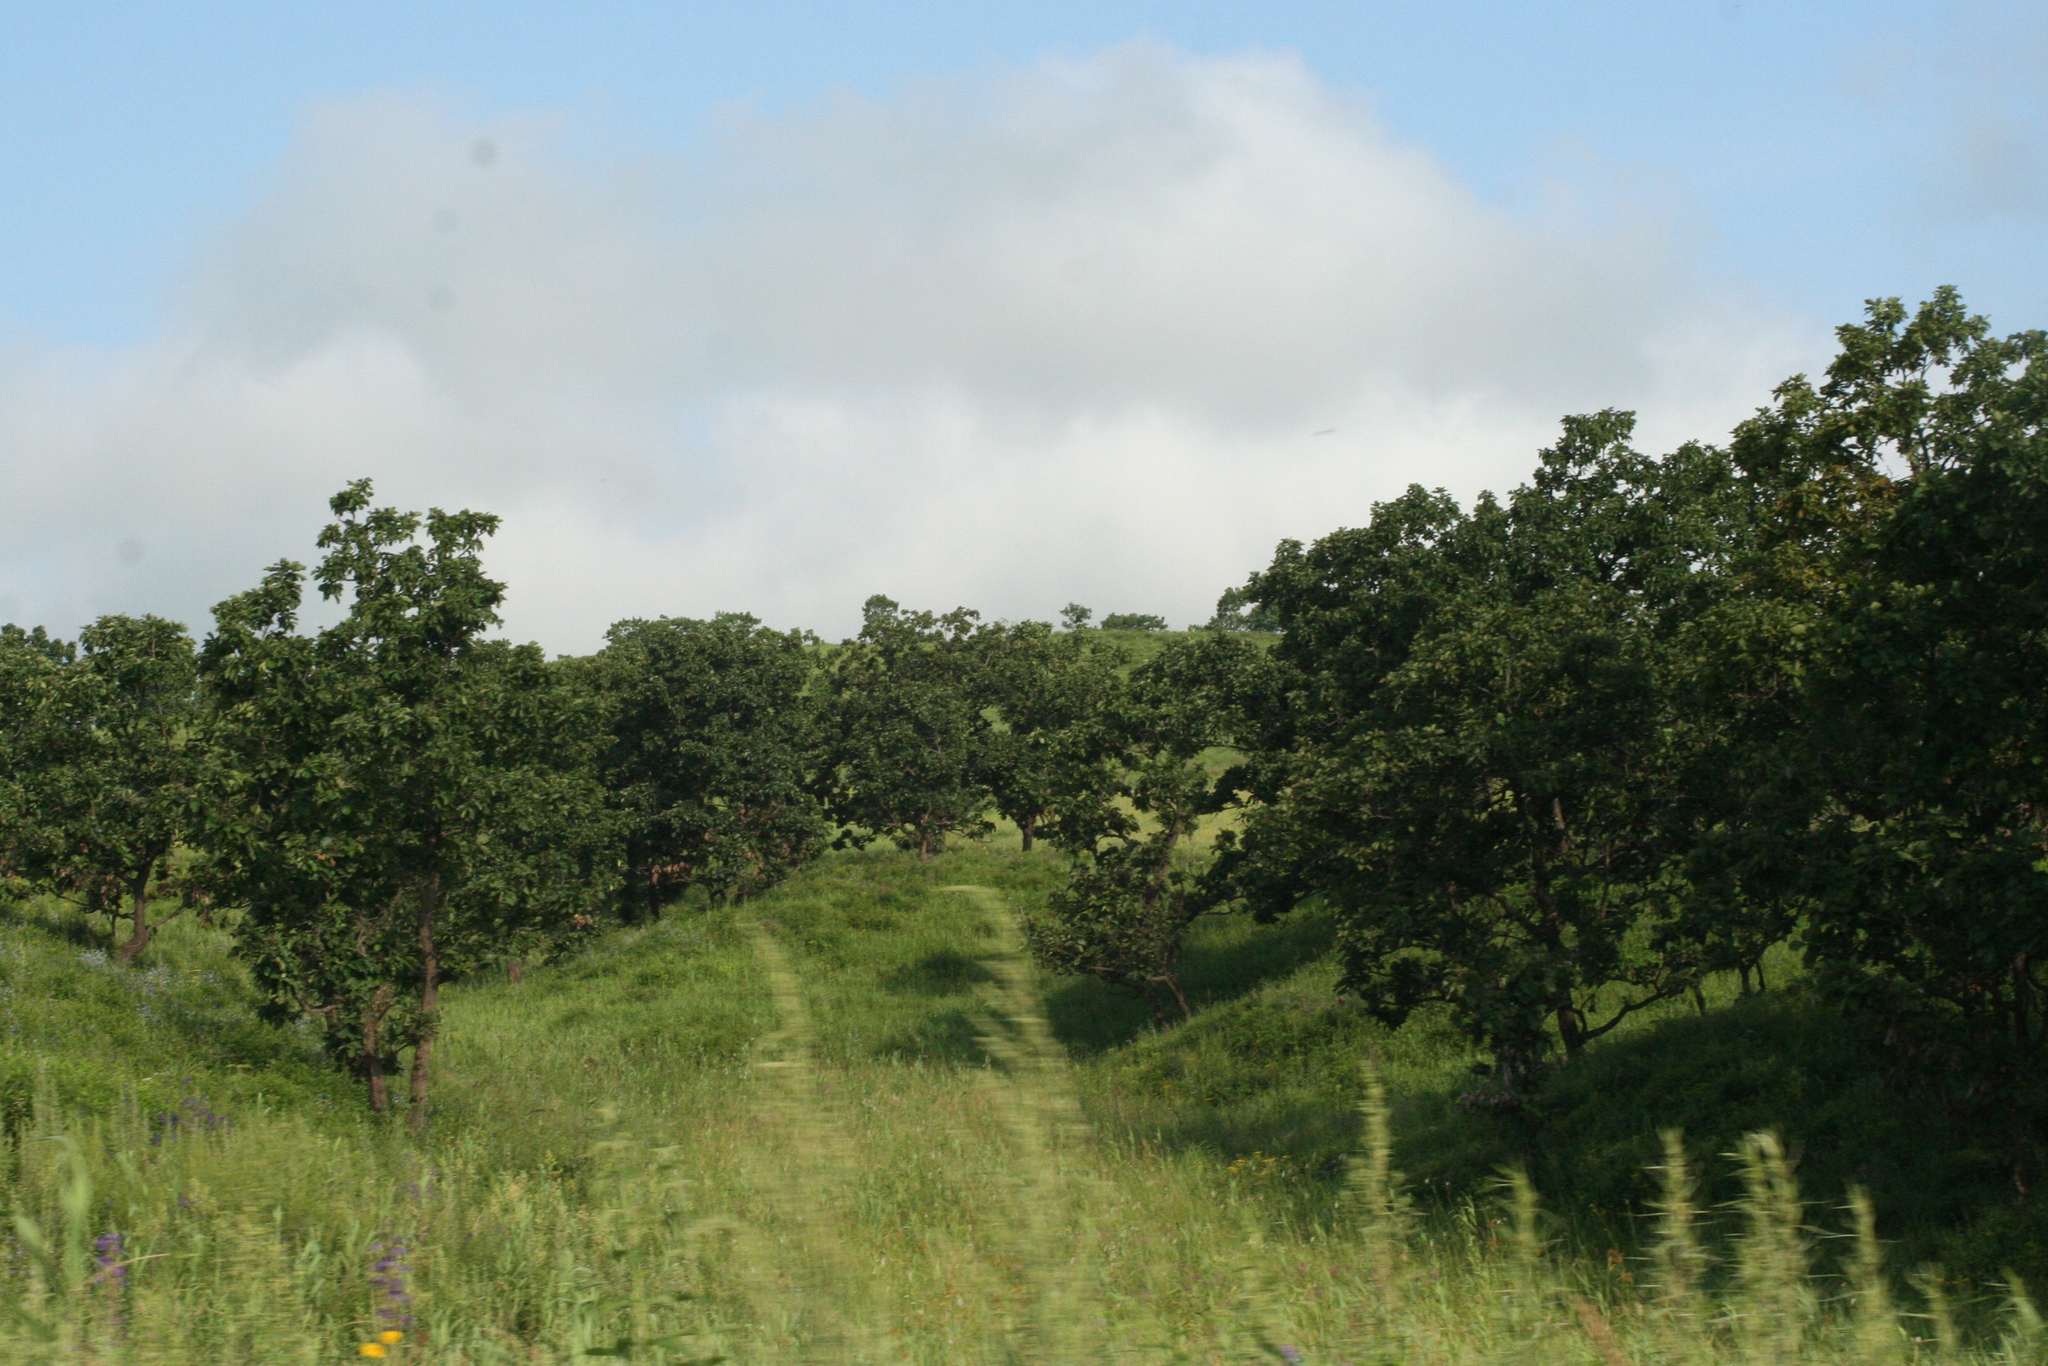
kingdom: Plantae
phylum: Tracheophyta
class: Magnoliopsida
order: Fagales
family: Fagaceae
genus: Quercus
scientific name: Quercus dentata
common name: Daimyo oak
